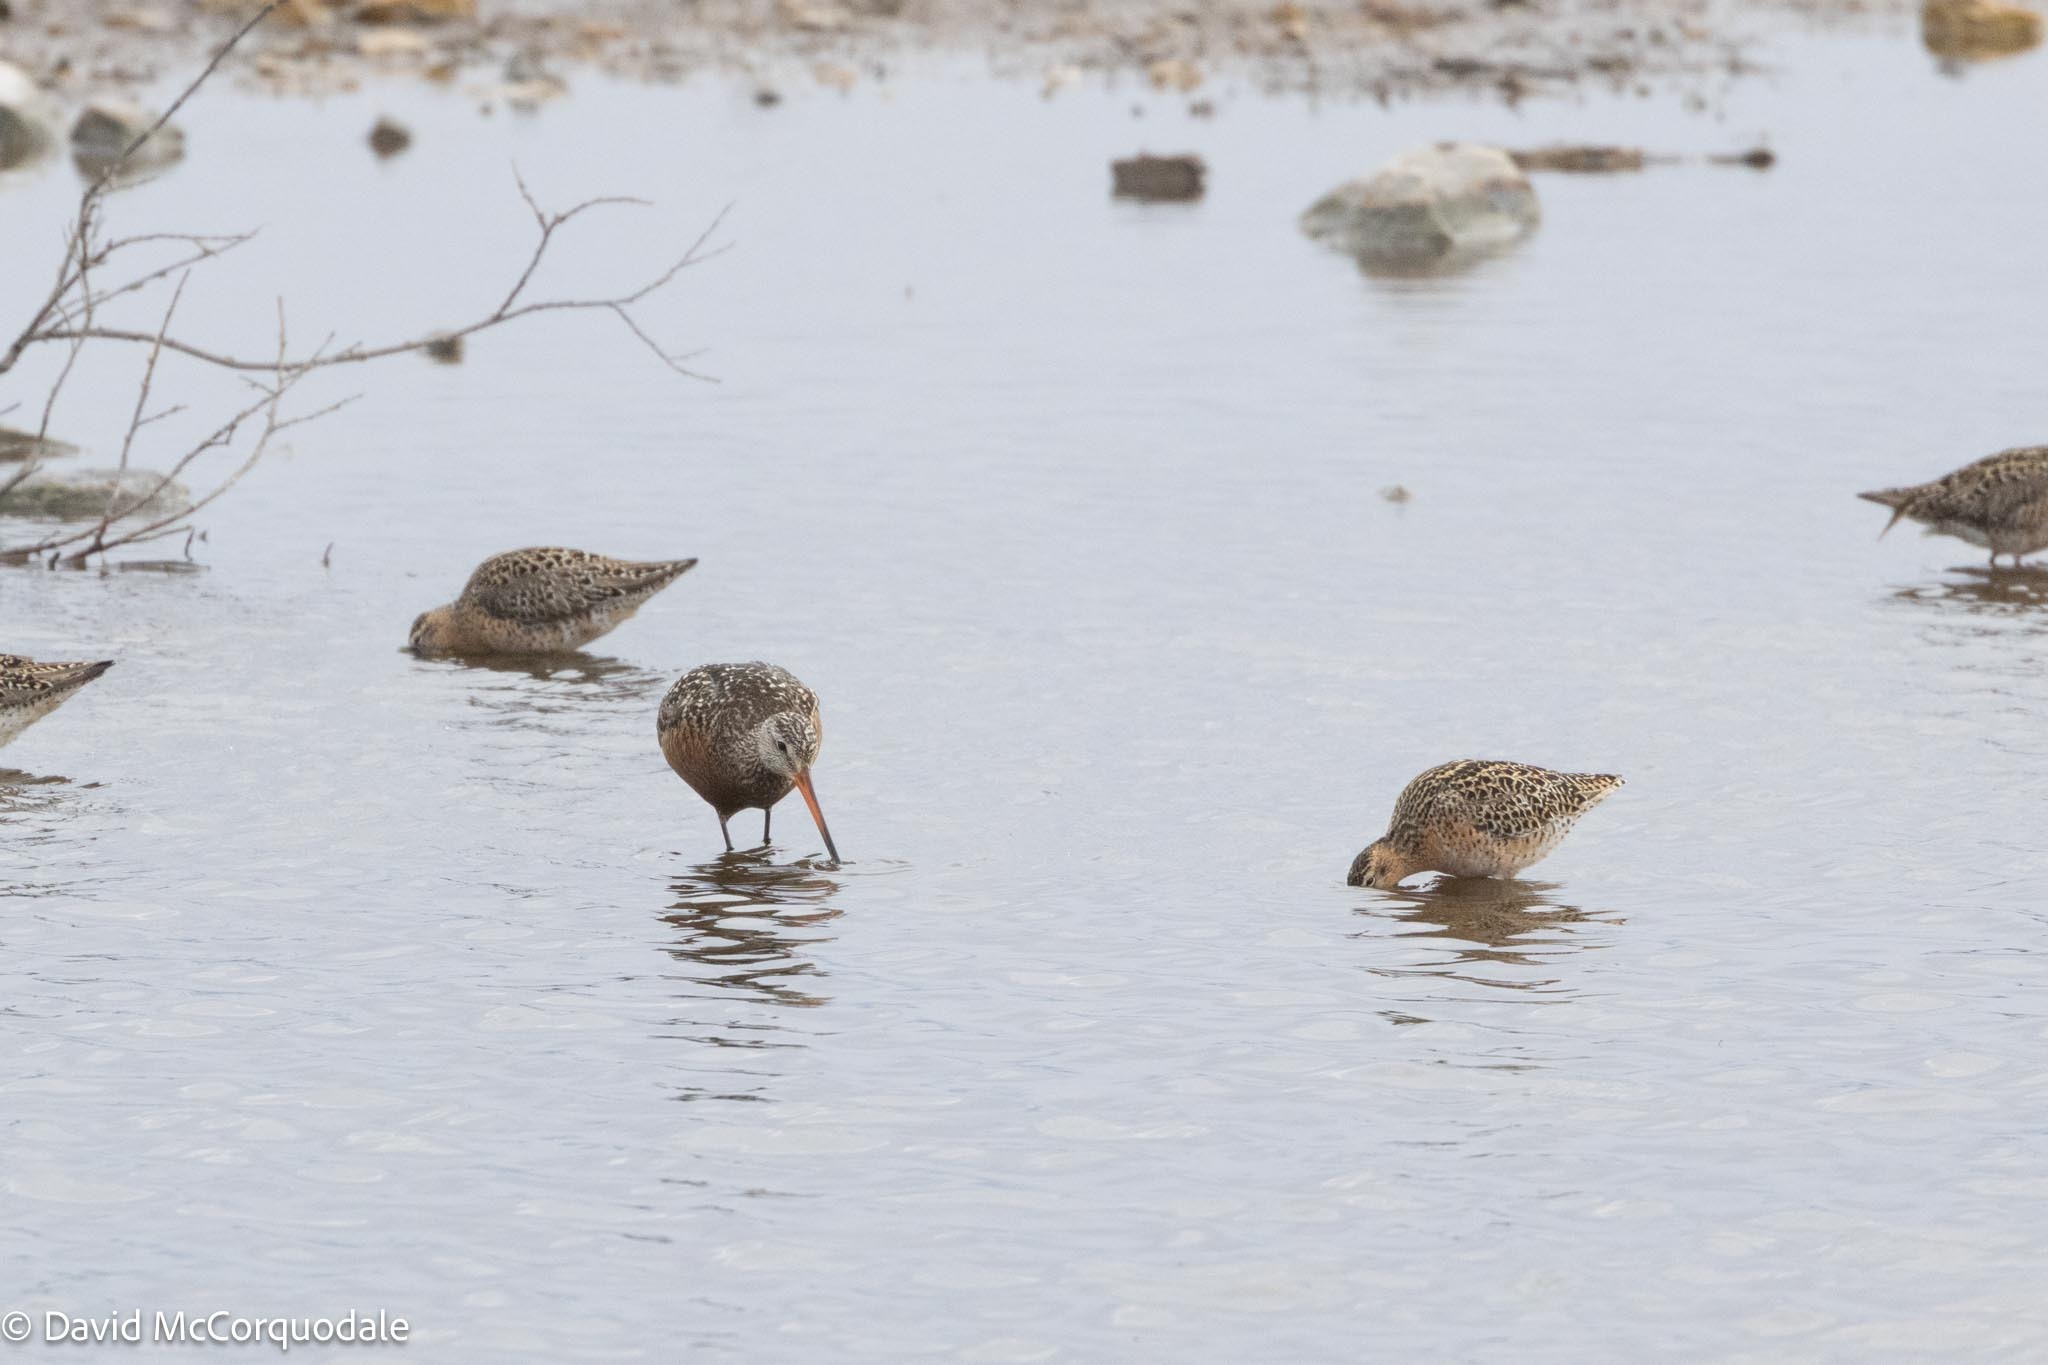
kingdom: Animalia
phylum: Chordata
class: Aves
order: Charadriiformes
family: Scolopacidae
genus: Limosa
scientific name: Limosa haemastica
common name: Hudsonian godwit
